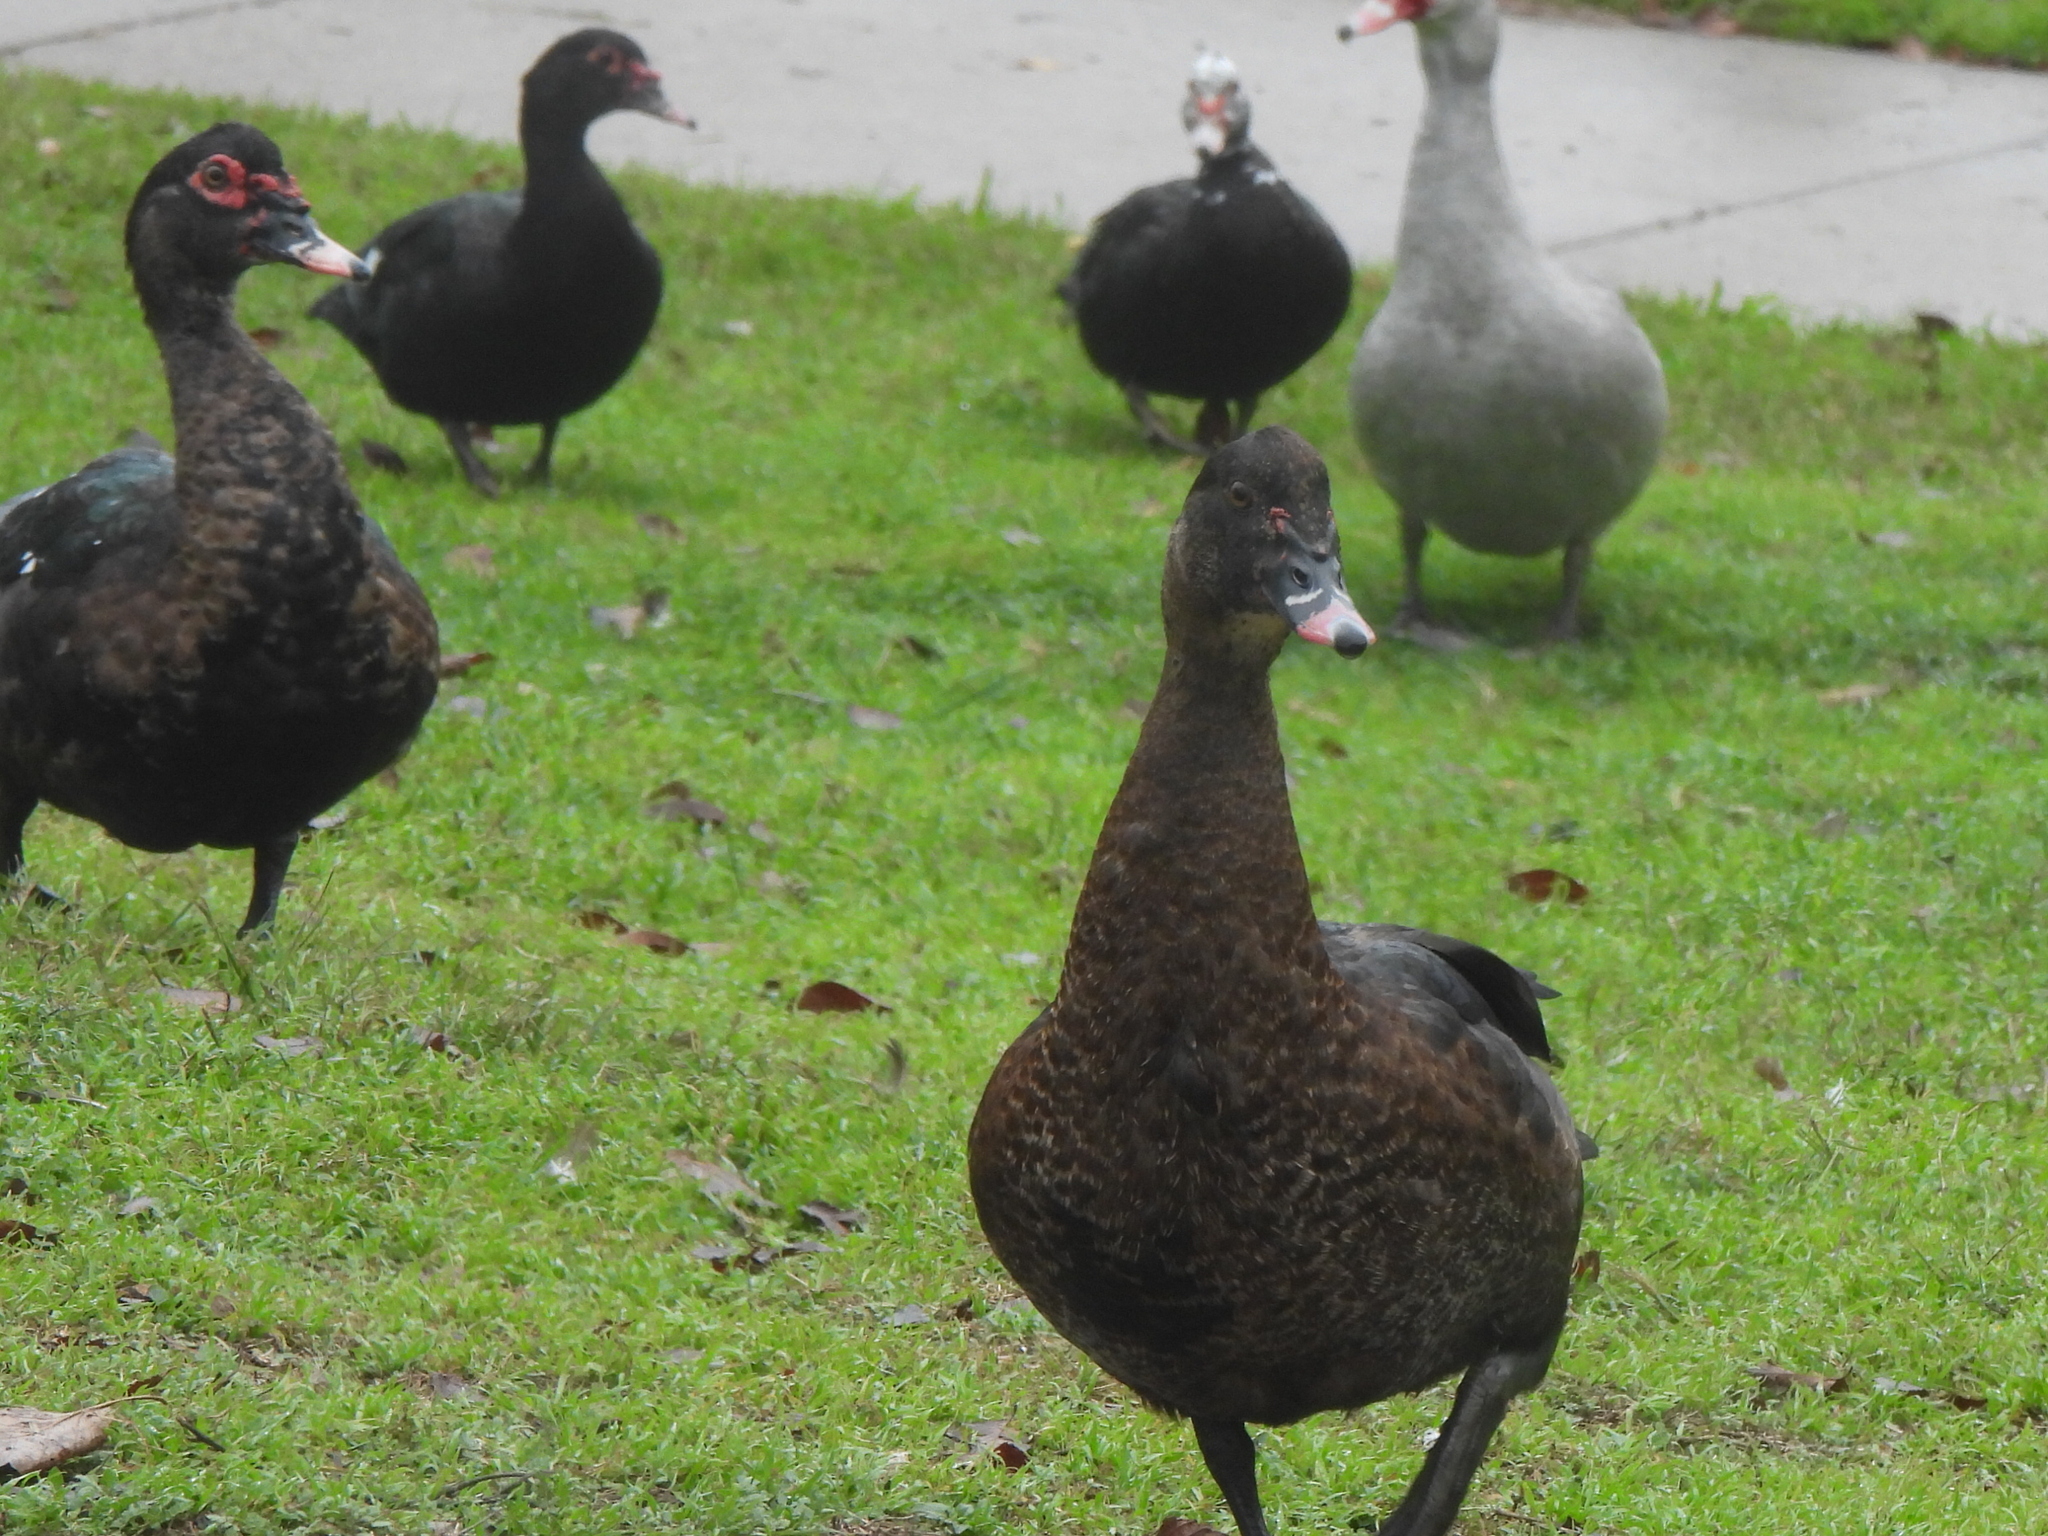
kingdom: Animalia
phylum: Chordata
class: Aves
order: Anseriformes
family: Anatidae
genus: Cairina
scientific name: Cairina moschata
